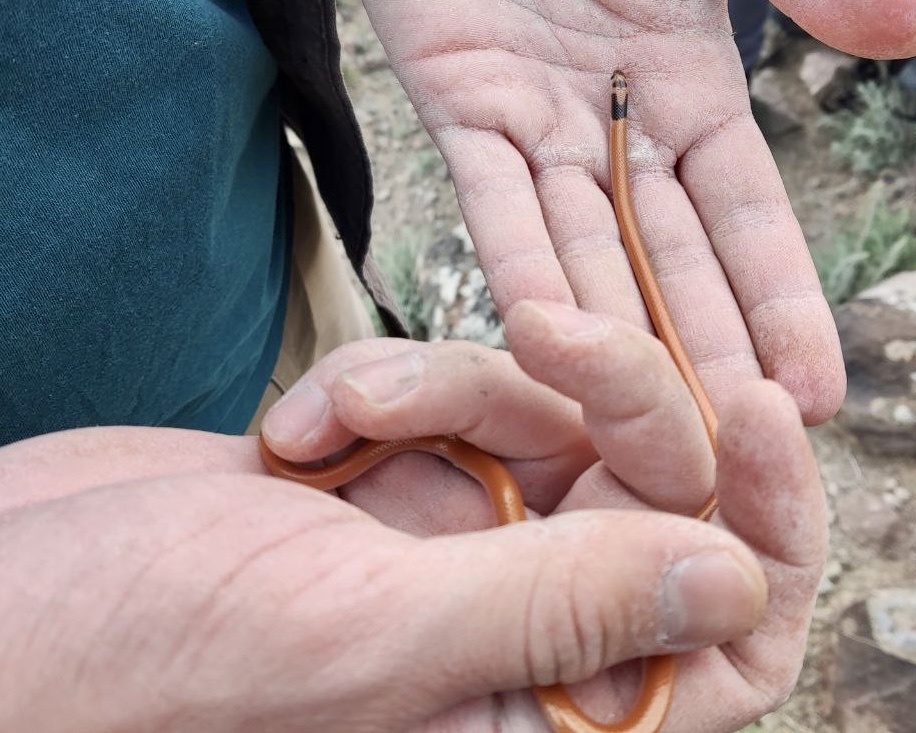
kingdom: Animalia
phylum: Chordata
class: Squamata
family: Colubridae
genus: Rhynchocalamus
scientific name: Rhynchocalamus satunini
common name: Palestine kukri snake
